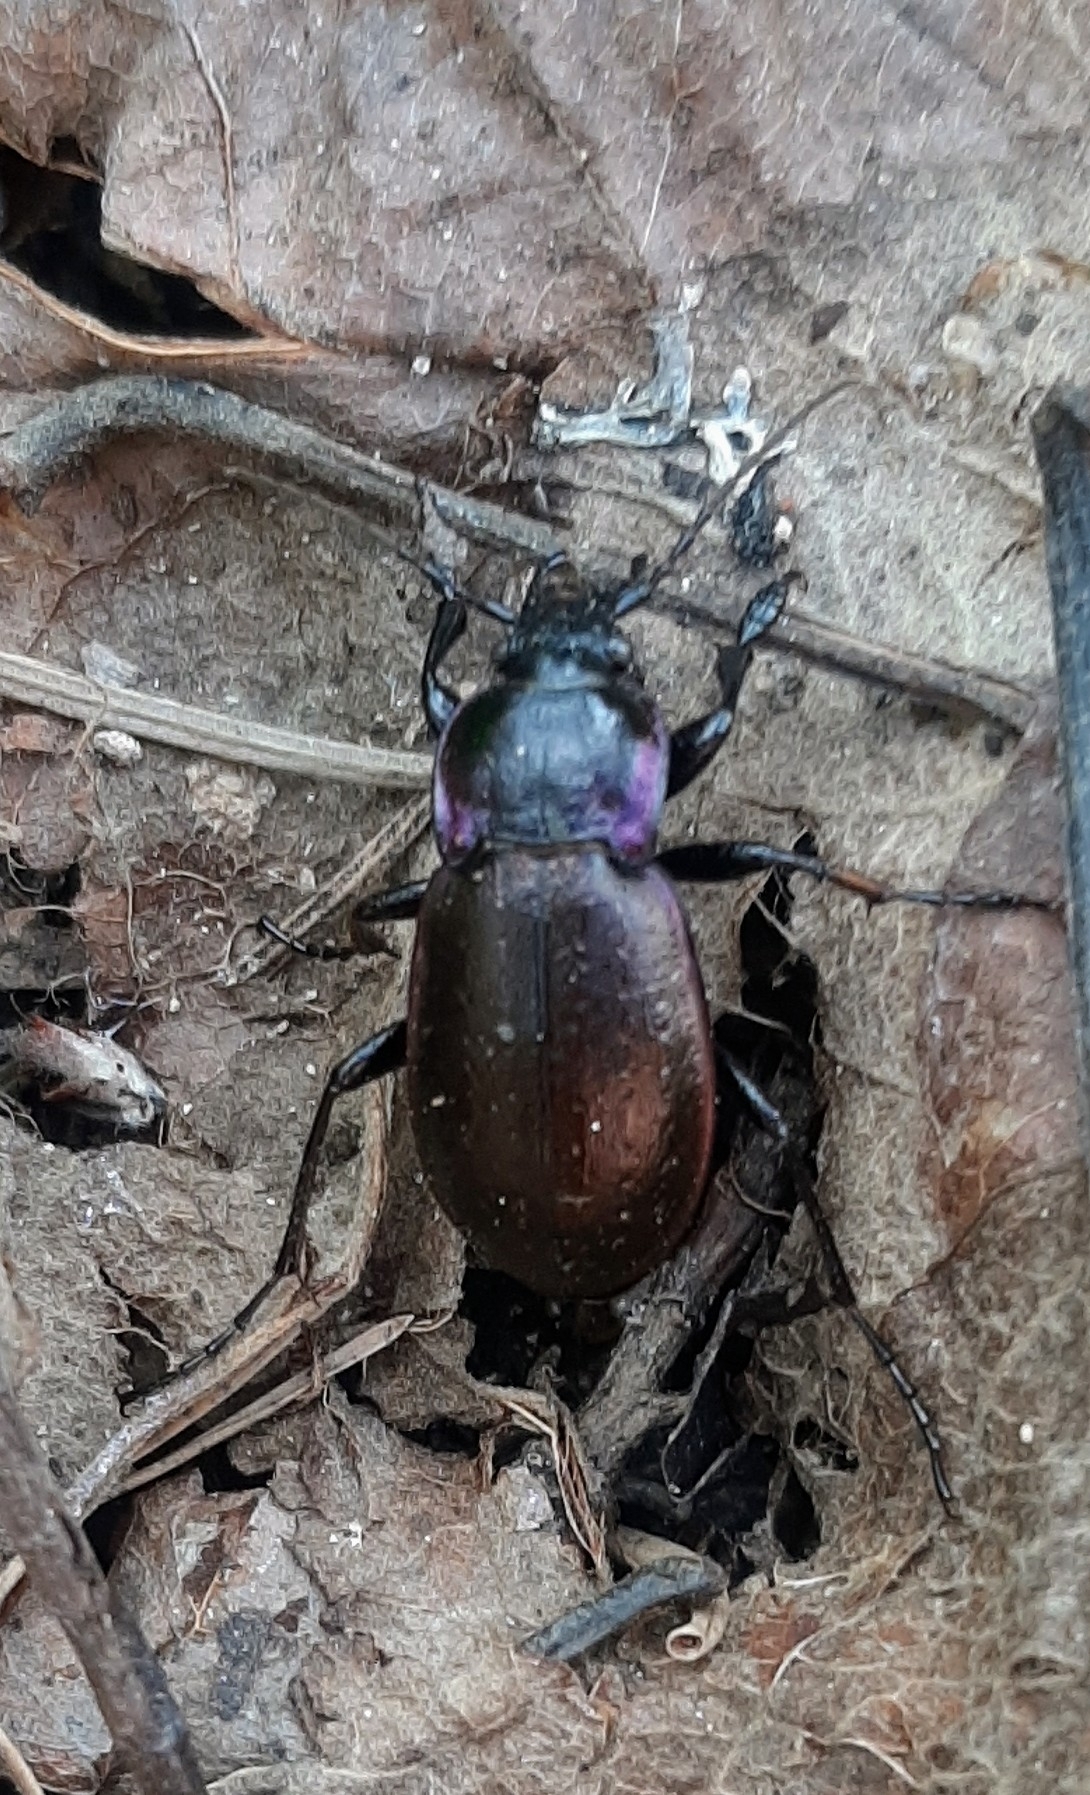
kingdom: Animalia
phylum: Arthropoda
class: Insecta
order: Coleoptera
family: Carabidae
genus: Carabus
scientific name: Carabus nemoralis
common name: European ground beetle
